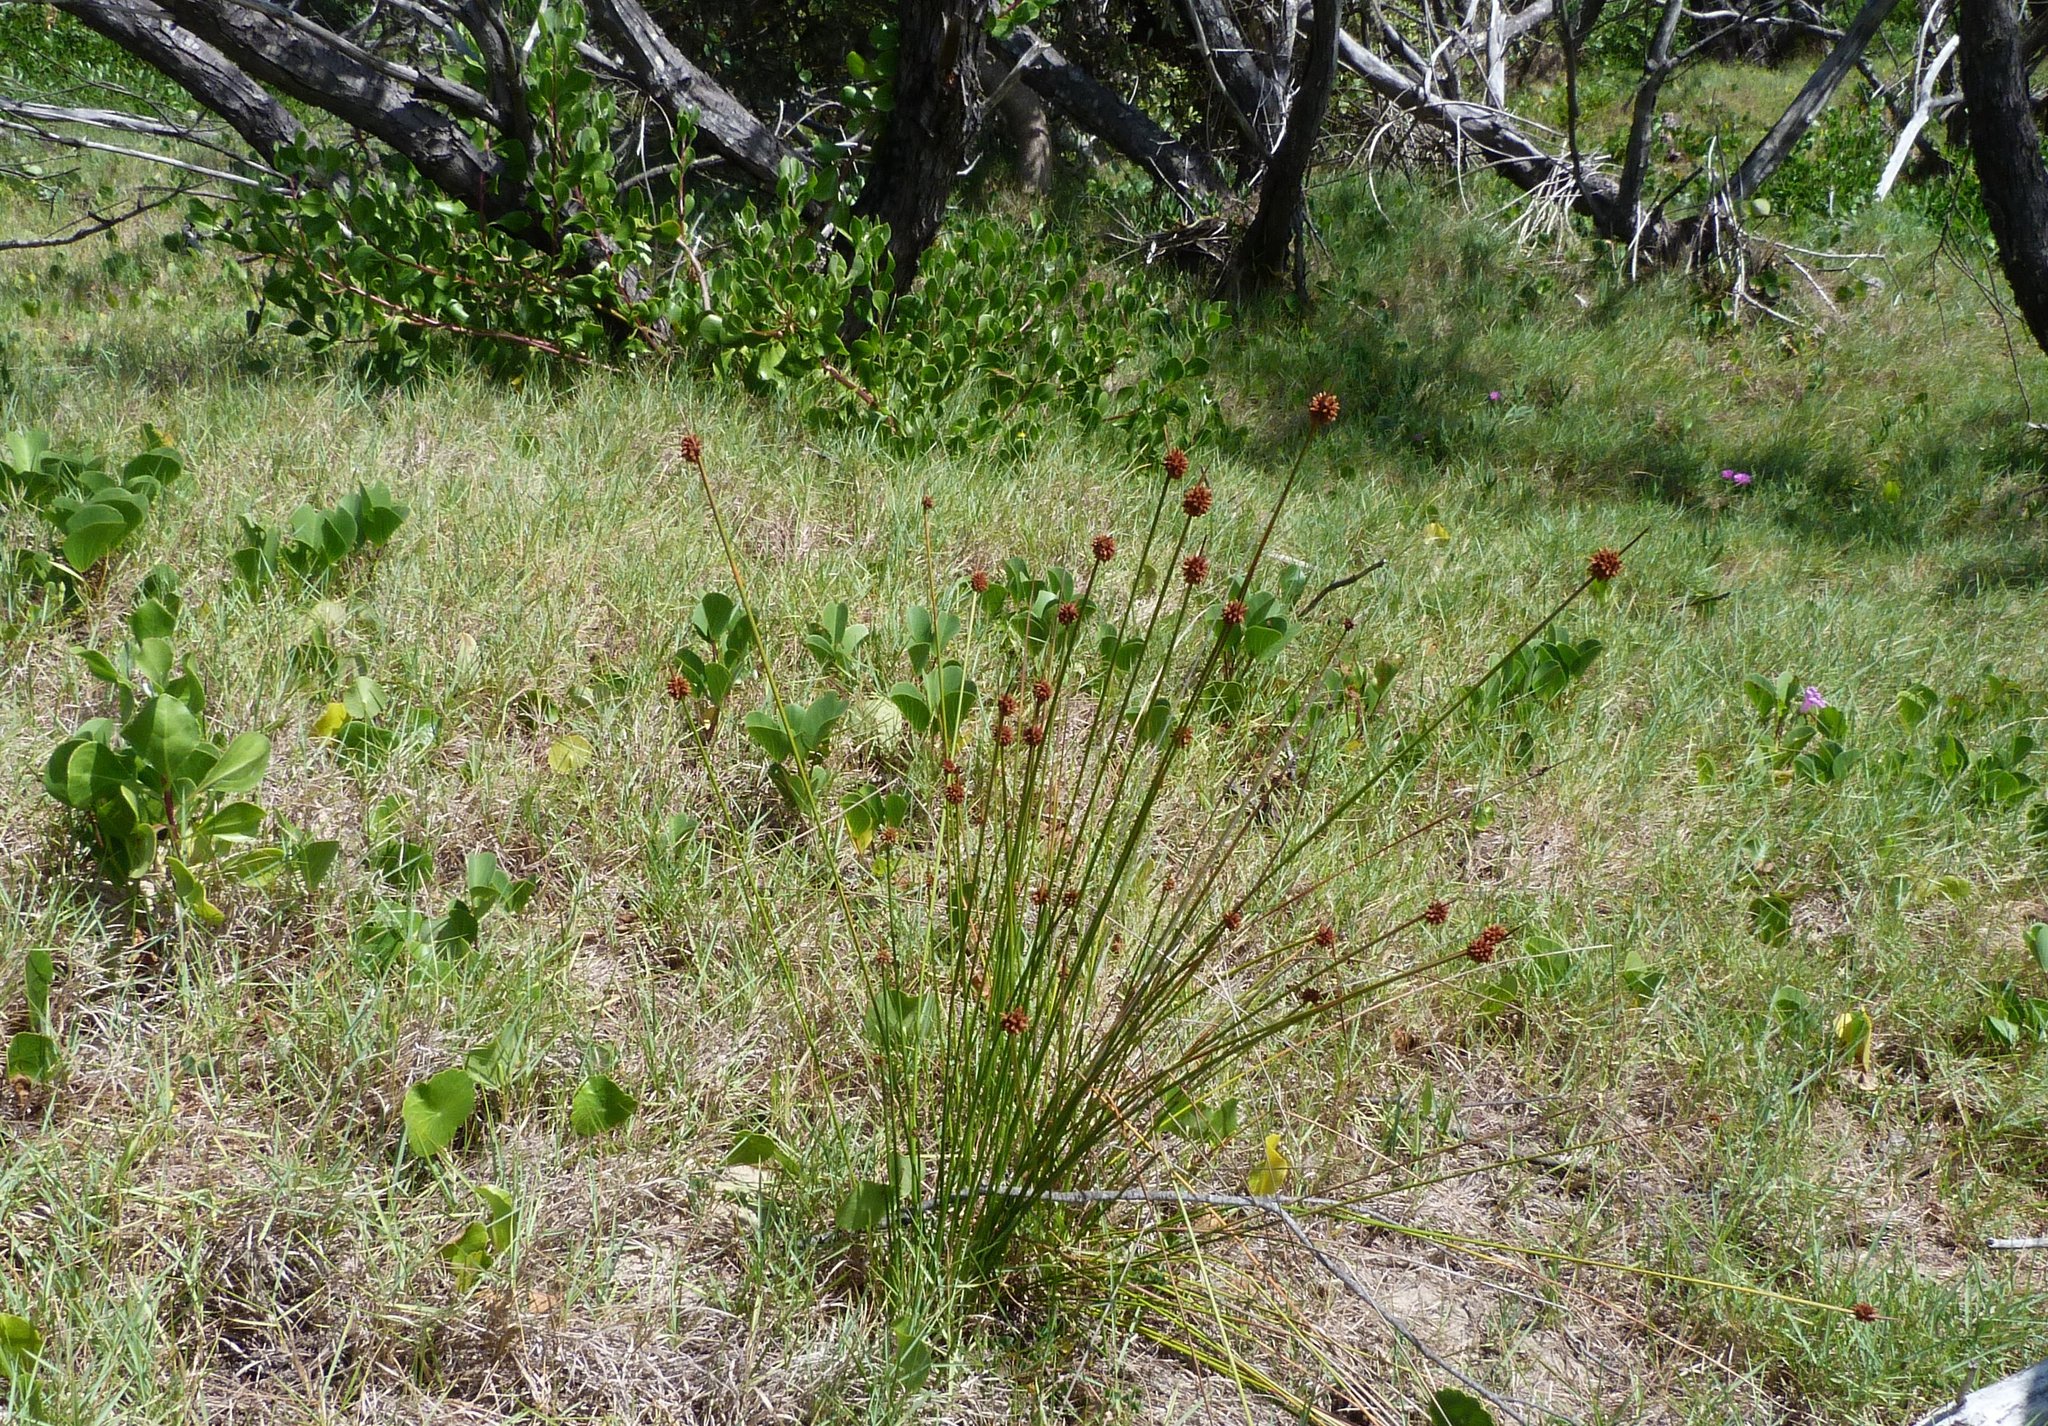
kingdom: Plantae
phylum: Tracheophyta
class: Liliopsida
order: Poales
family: Cyperaceae
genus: Ficinia
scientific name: Ficinia nodosa
